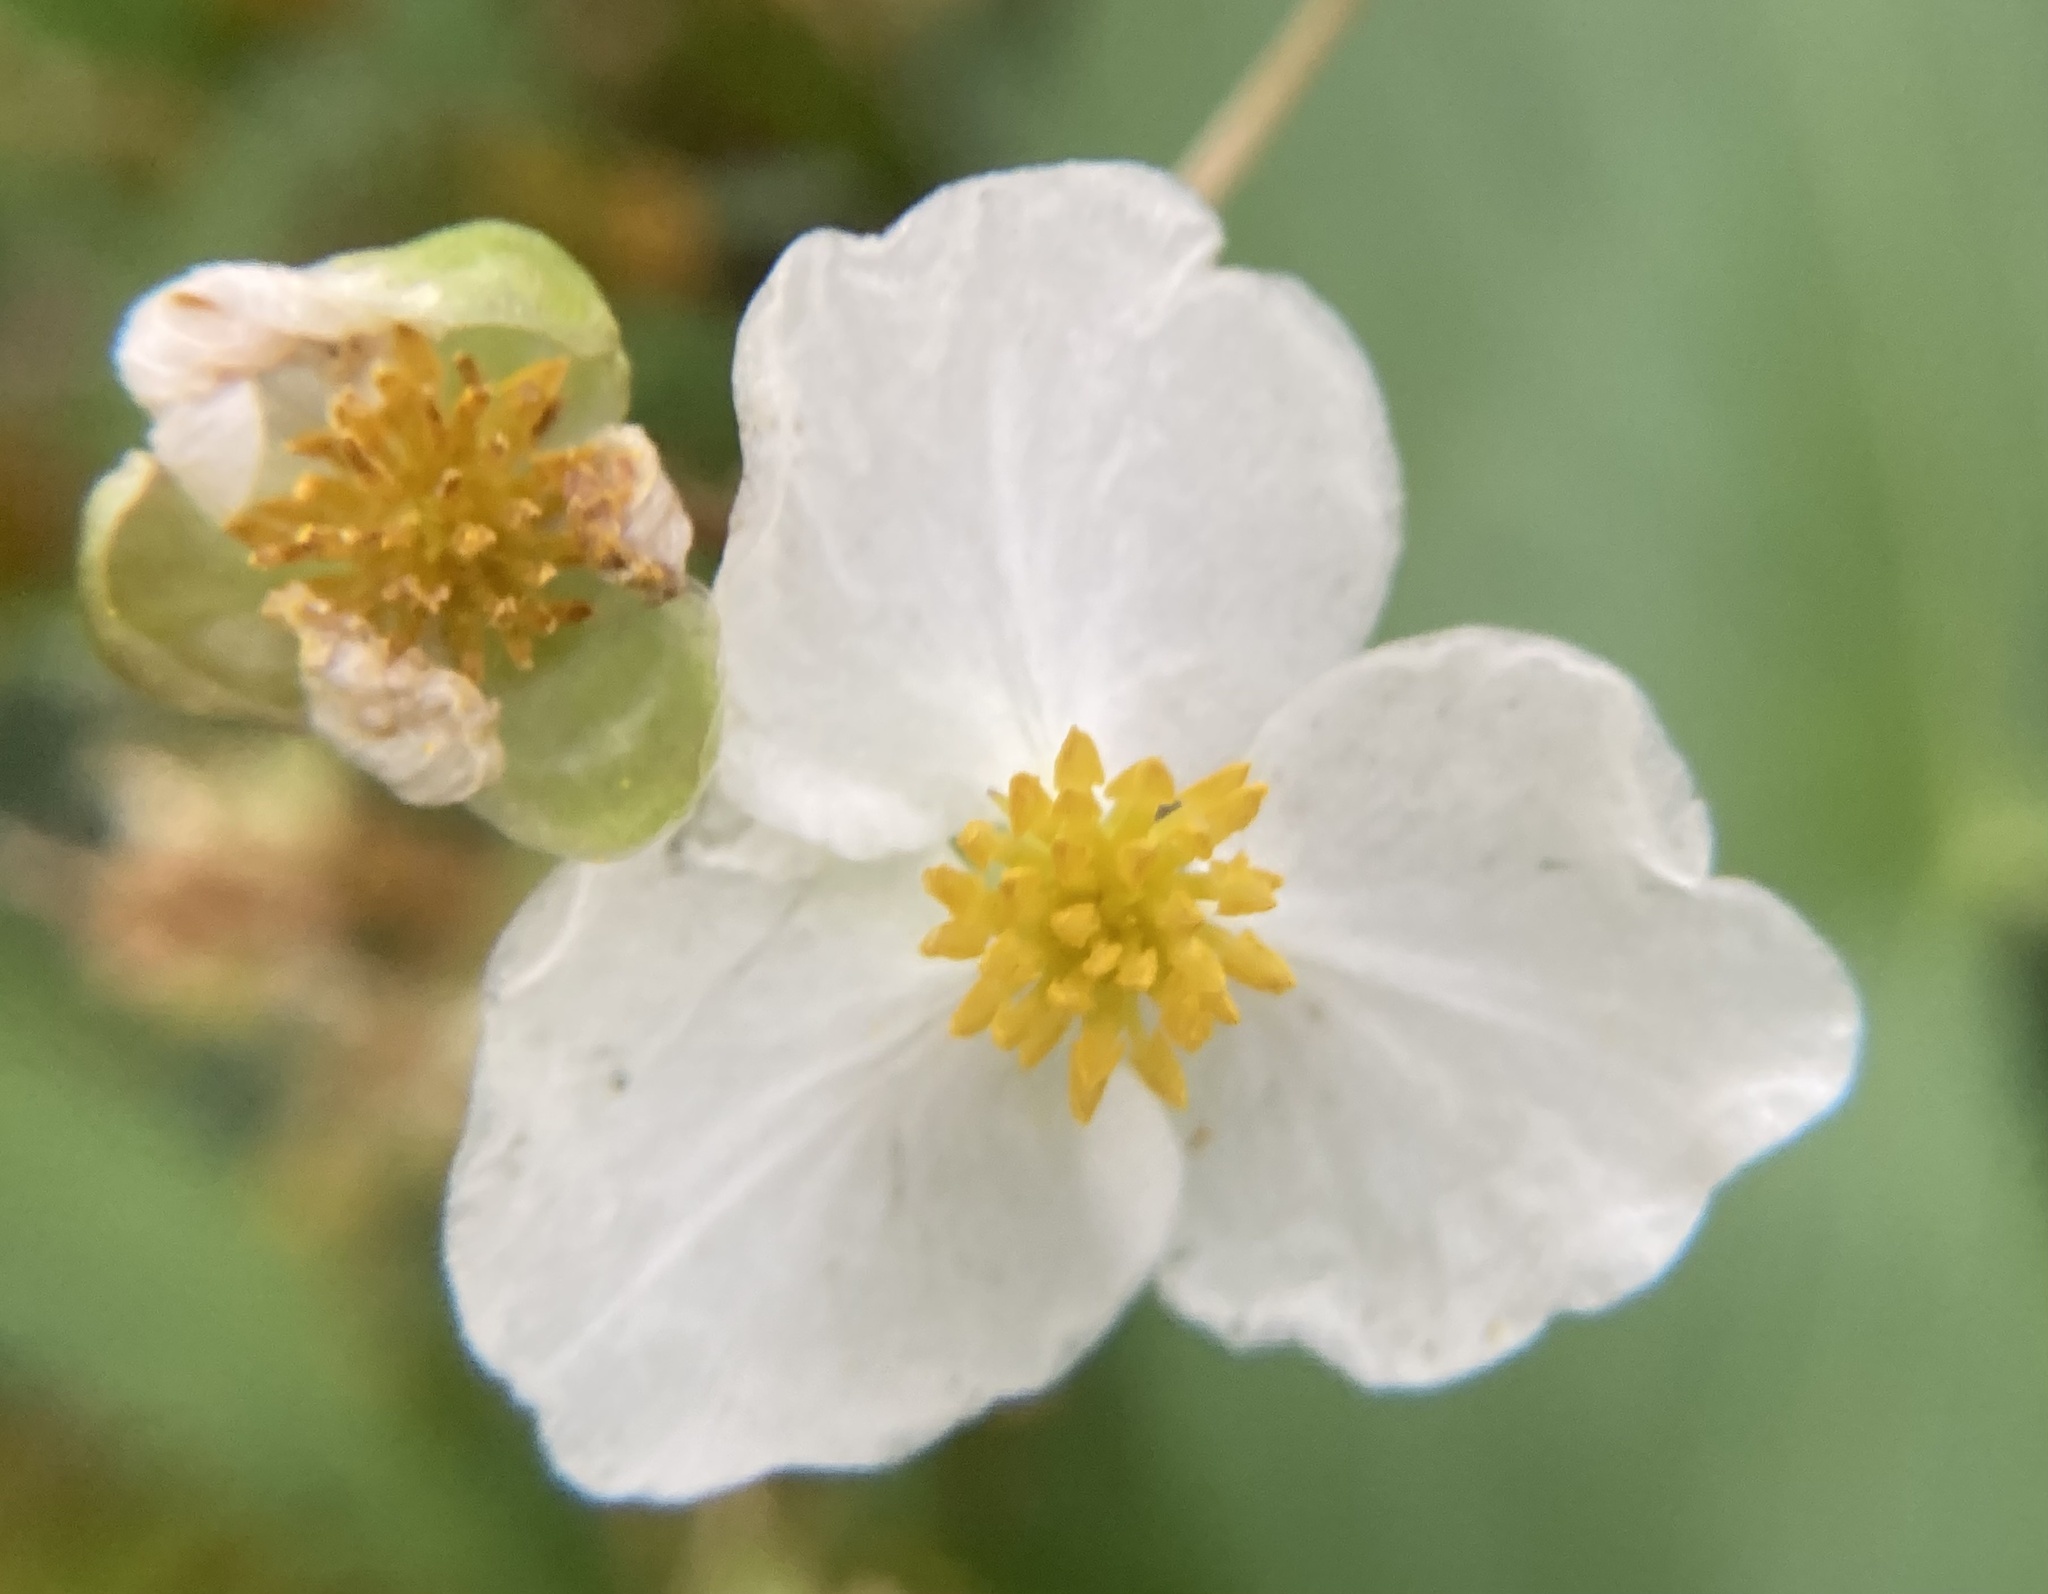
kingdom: Plantae
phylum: Tracheophyta
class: Liliopsida
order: Alismatales
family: Alismataceae
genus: Sagittaria
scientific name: Sagittaria latifolia
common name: Duck-potato
